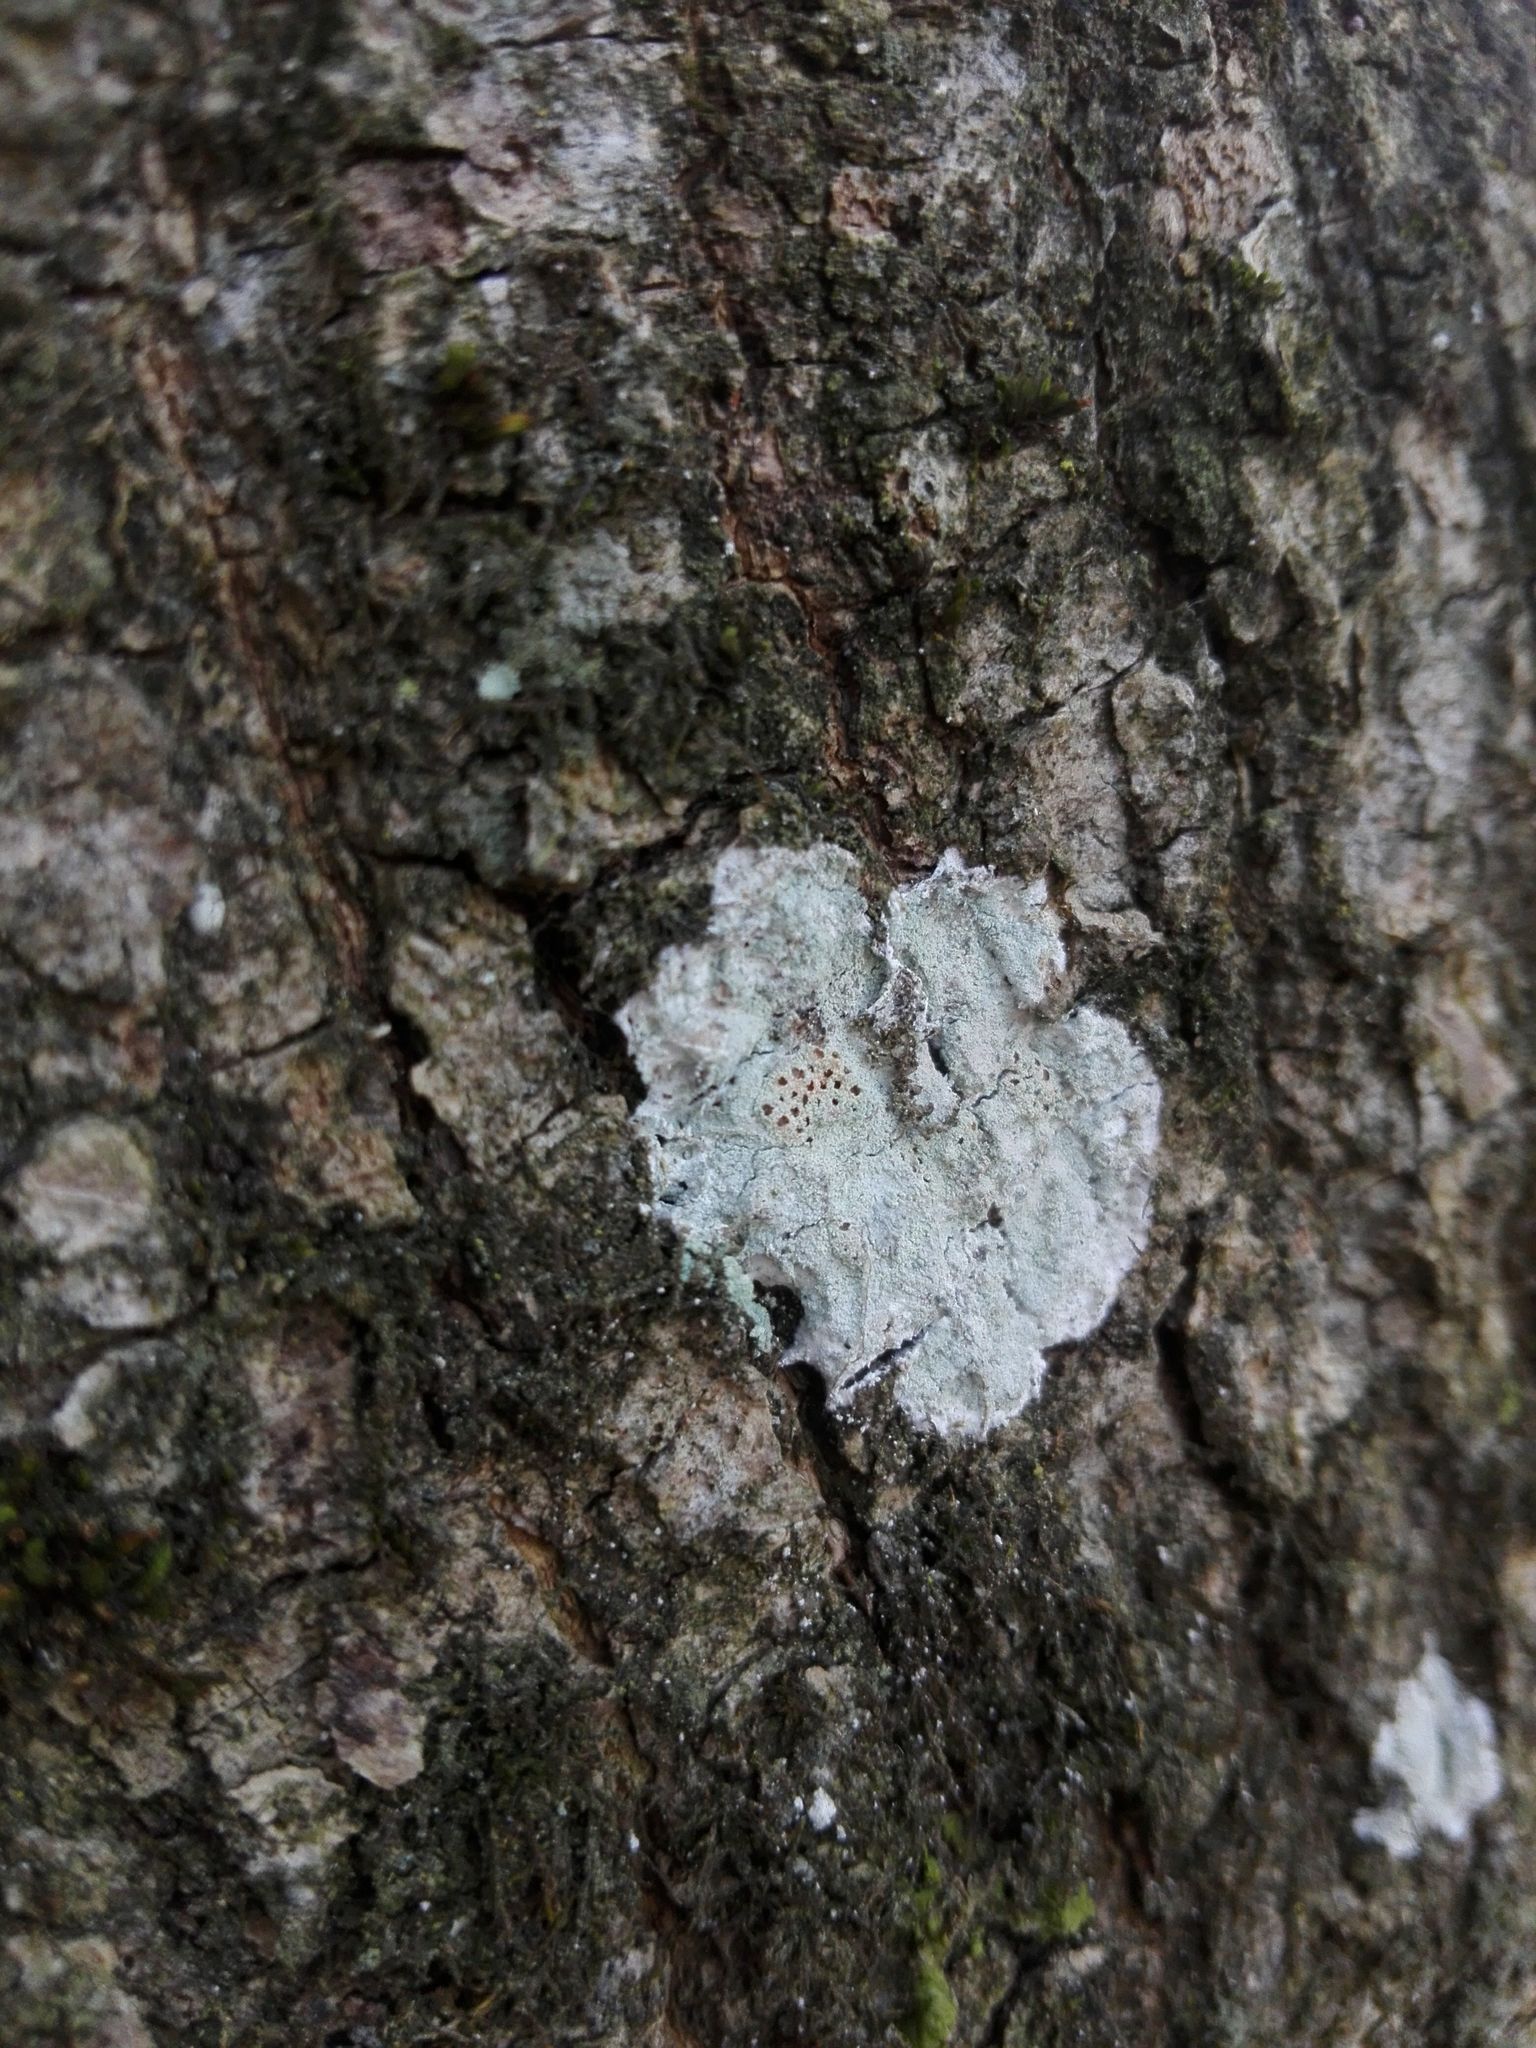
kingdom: Fungi
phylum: Ascomycota
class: Lecanoromycetes
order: Ostropales
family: Phlyctidaceae
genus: Phlyctis
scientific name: Phlyctis argena
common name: Whitewash lichen
